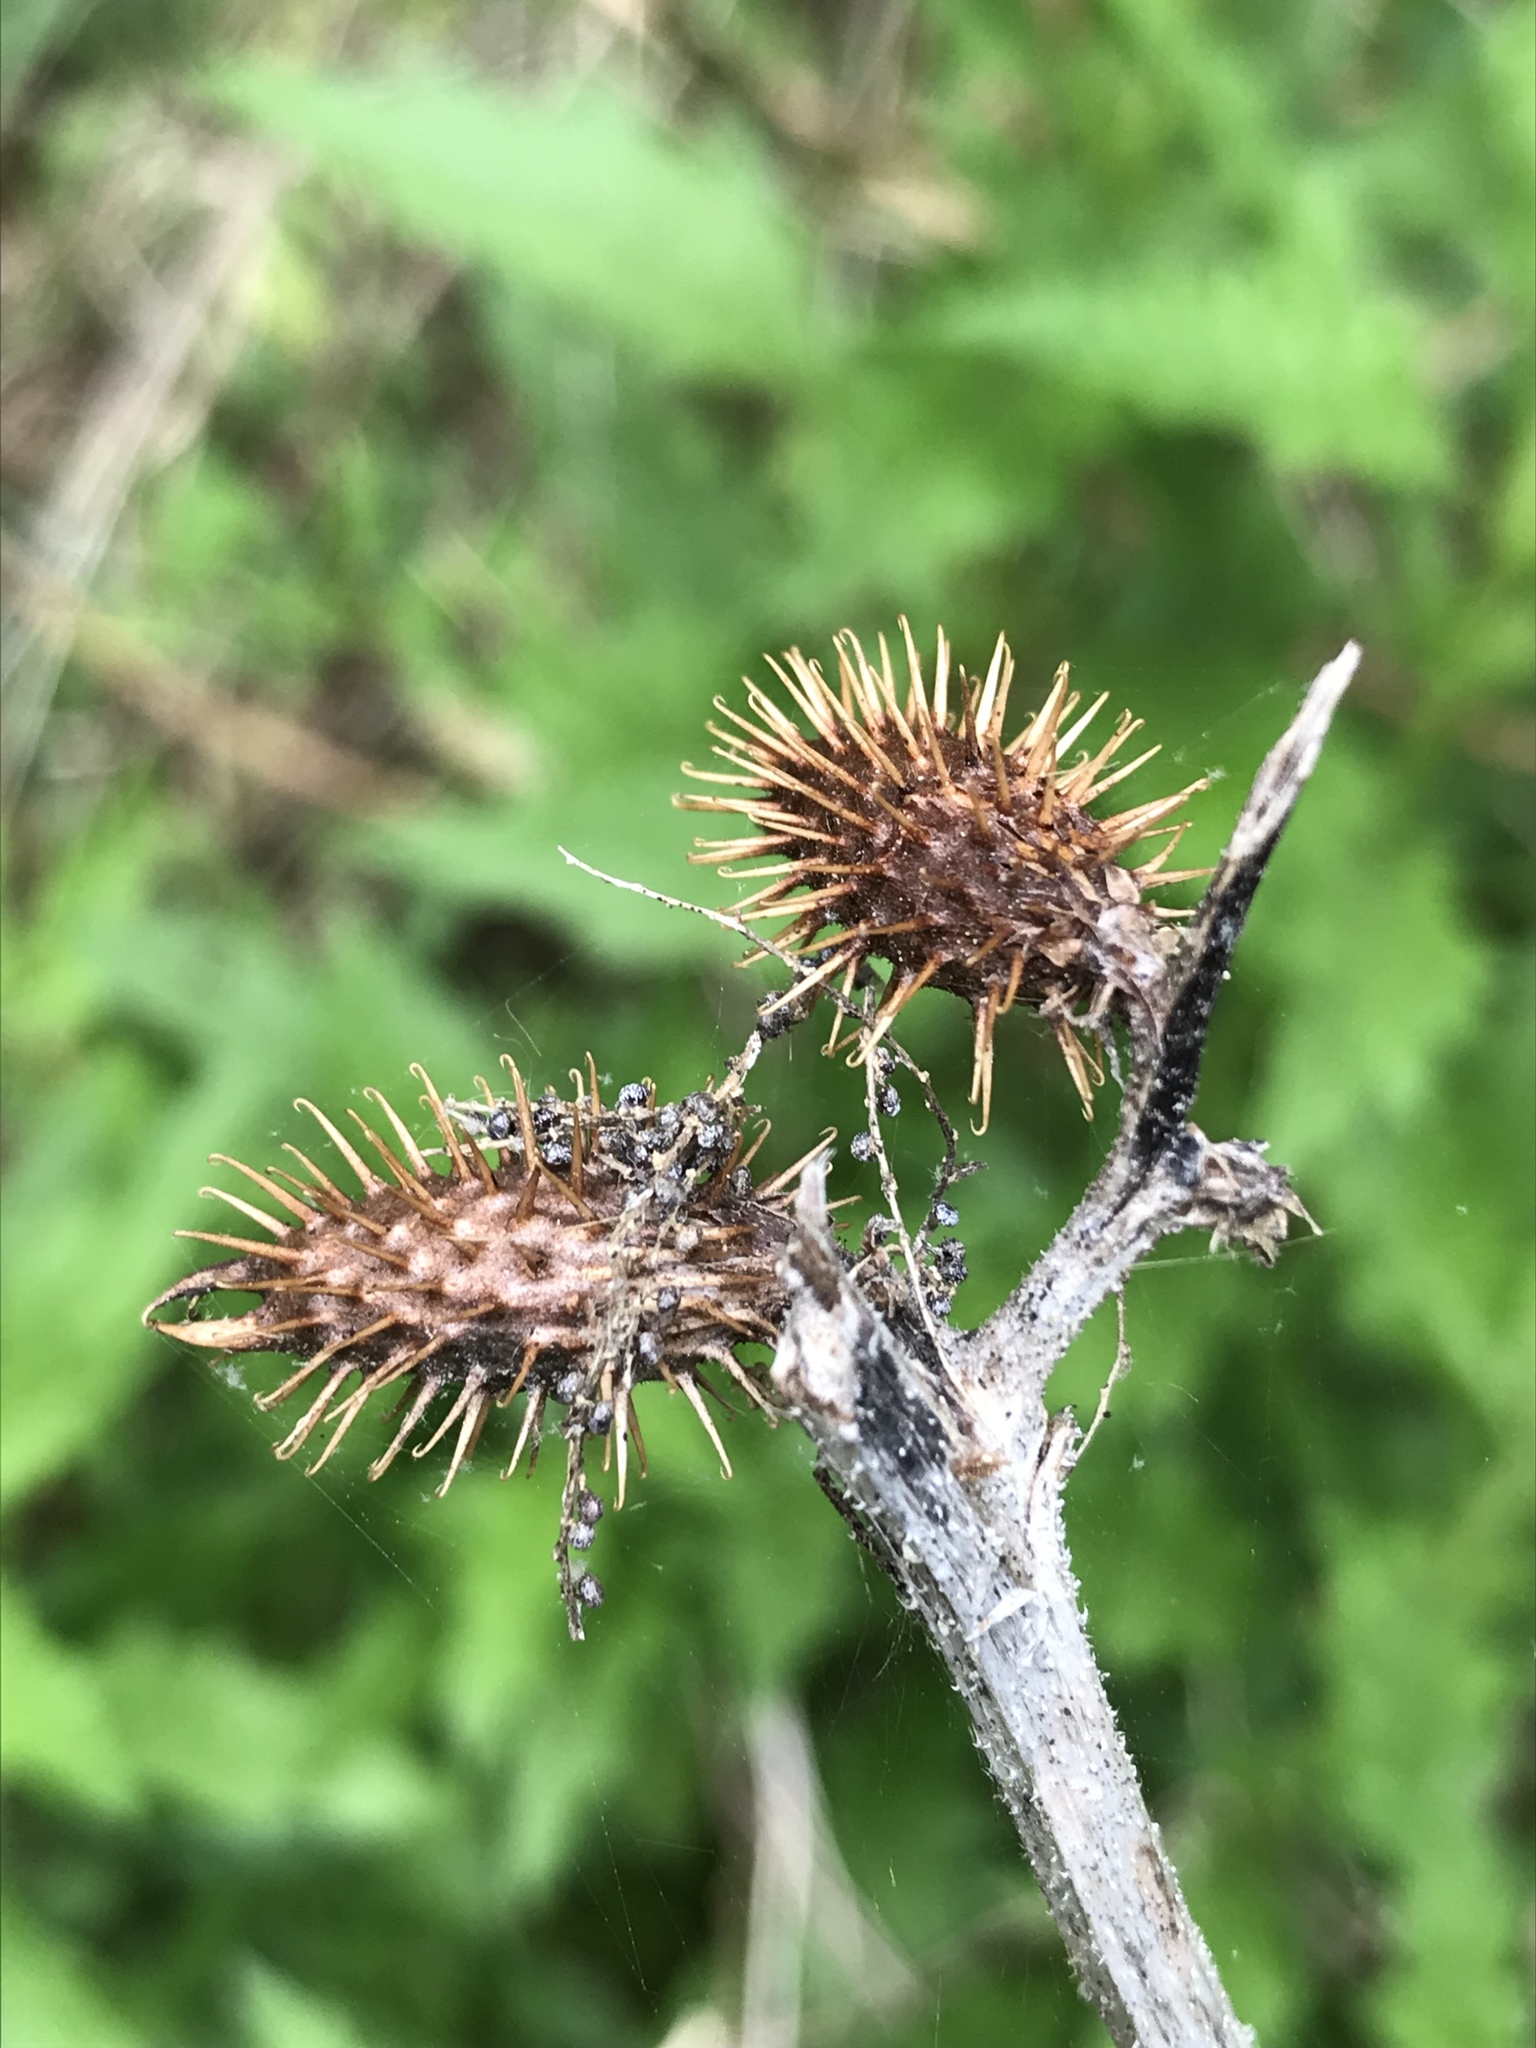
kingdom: Plantae
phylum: Tracheophyta
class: Magnoliopsida
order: Asterales
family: Asteraceae
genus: Xanthium
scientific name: Xanthium strumarium
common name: Rough cocklebur
